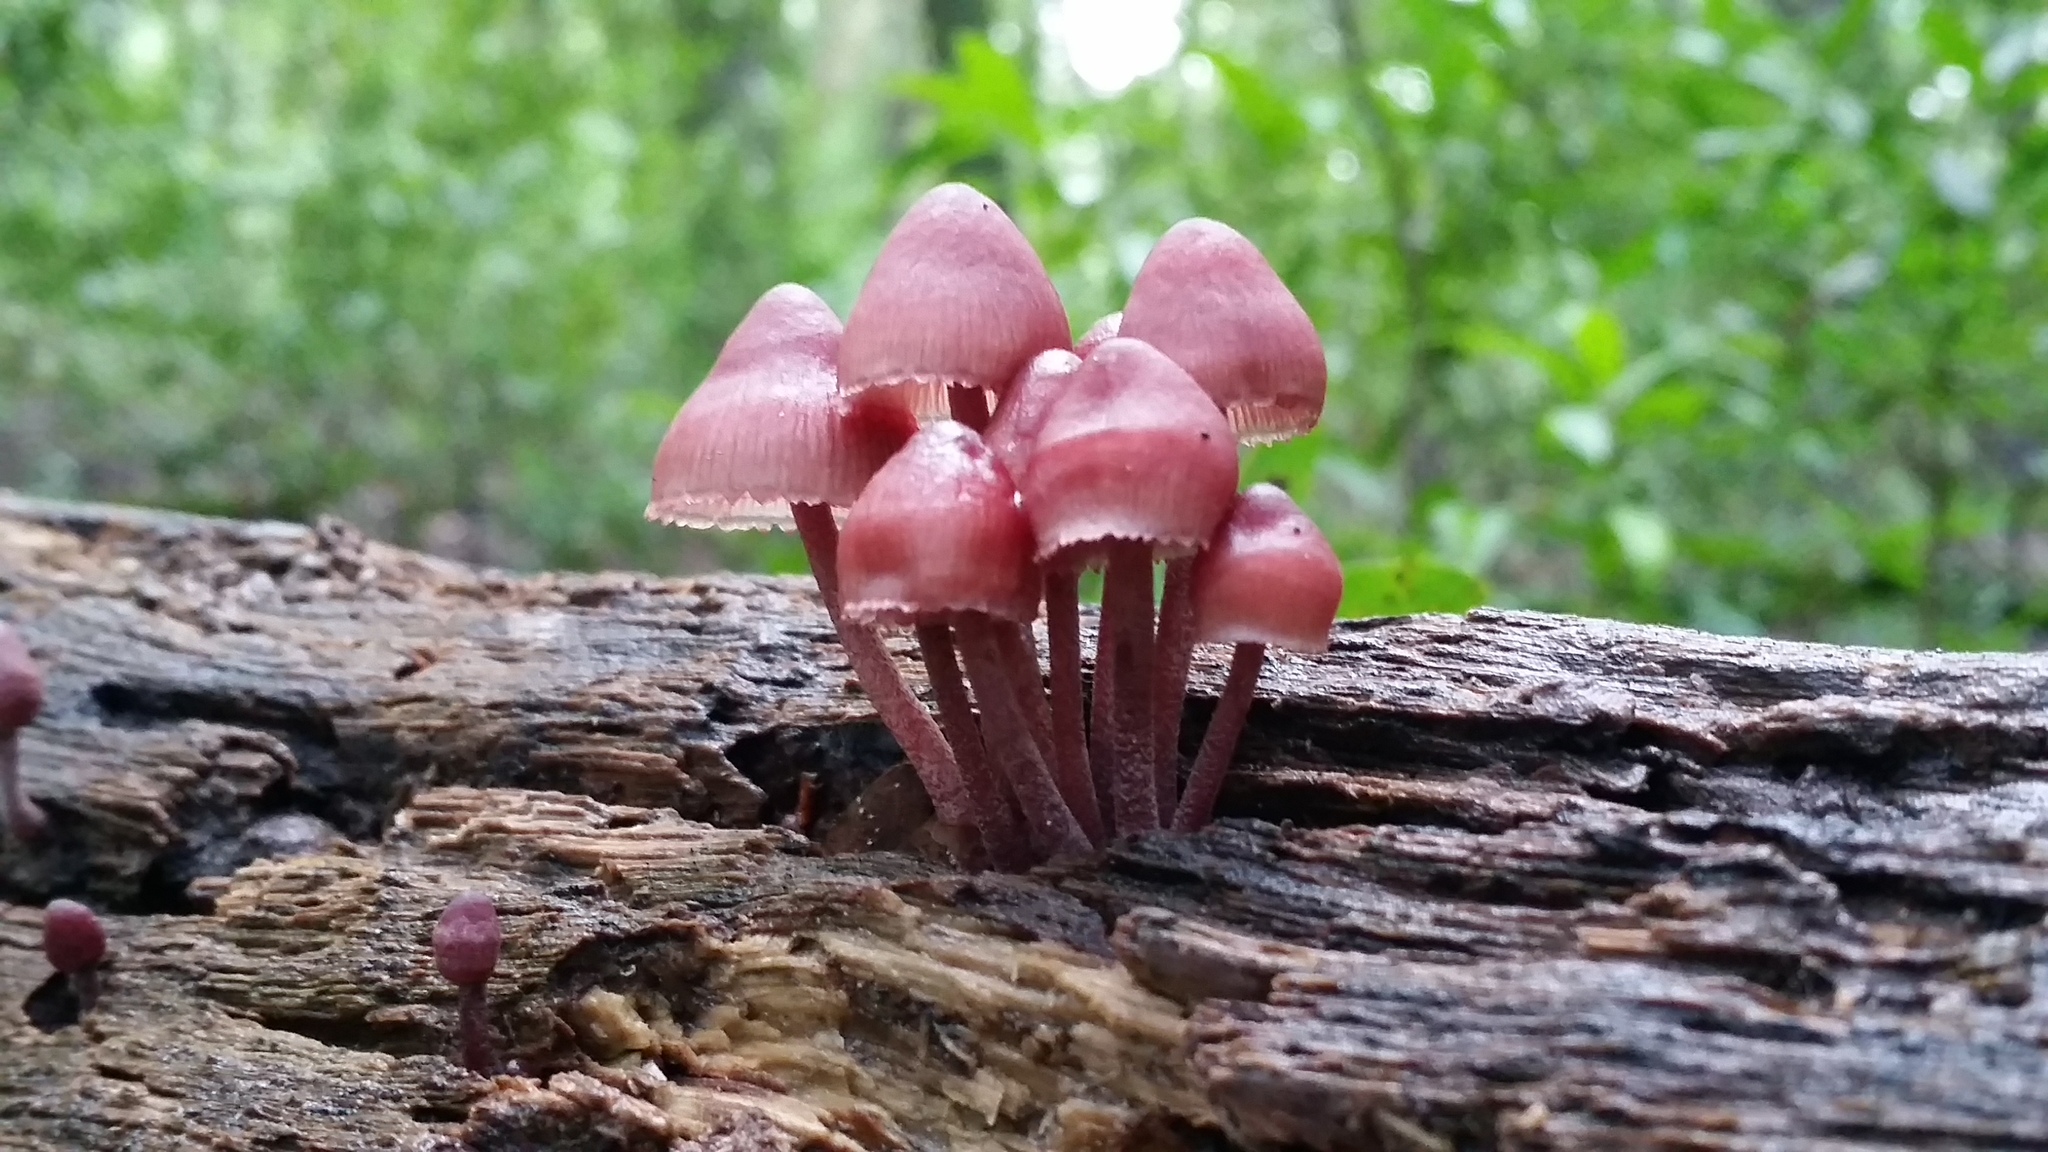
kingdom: Fungi
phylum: Basidiomycota
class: Agaricomycetes
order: Agaricales
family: Mycenaceae
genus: Mycena
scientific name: Mycena haematopus
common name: Burgundydrop bonnet
